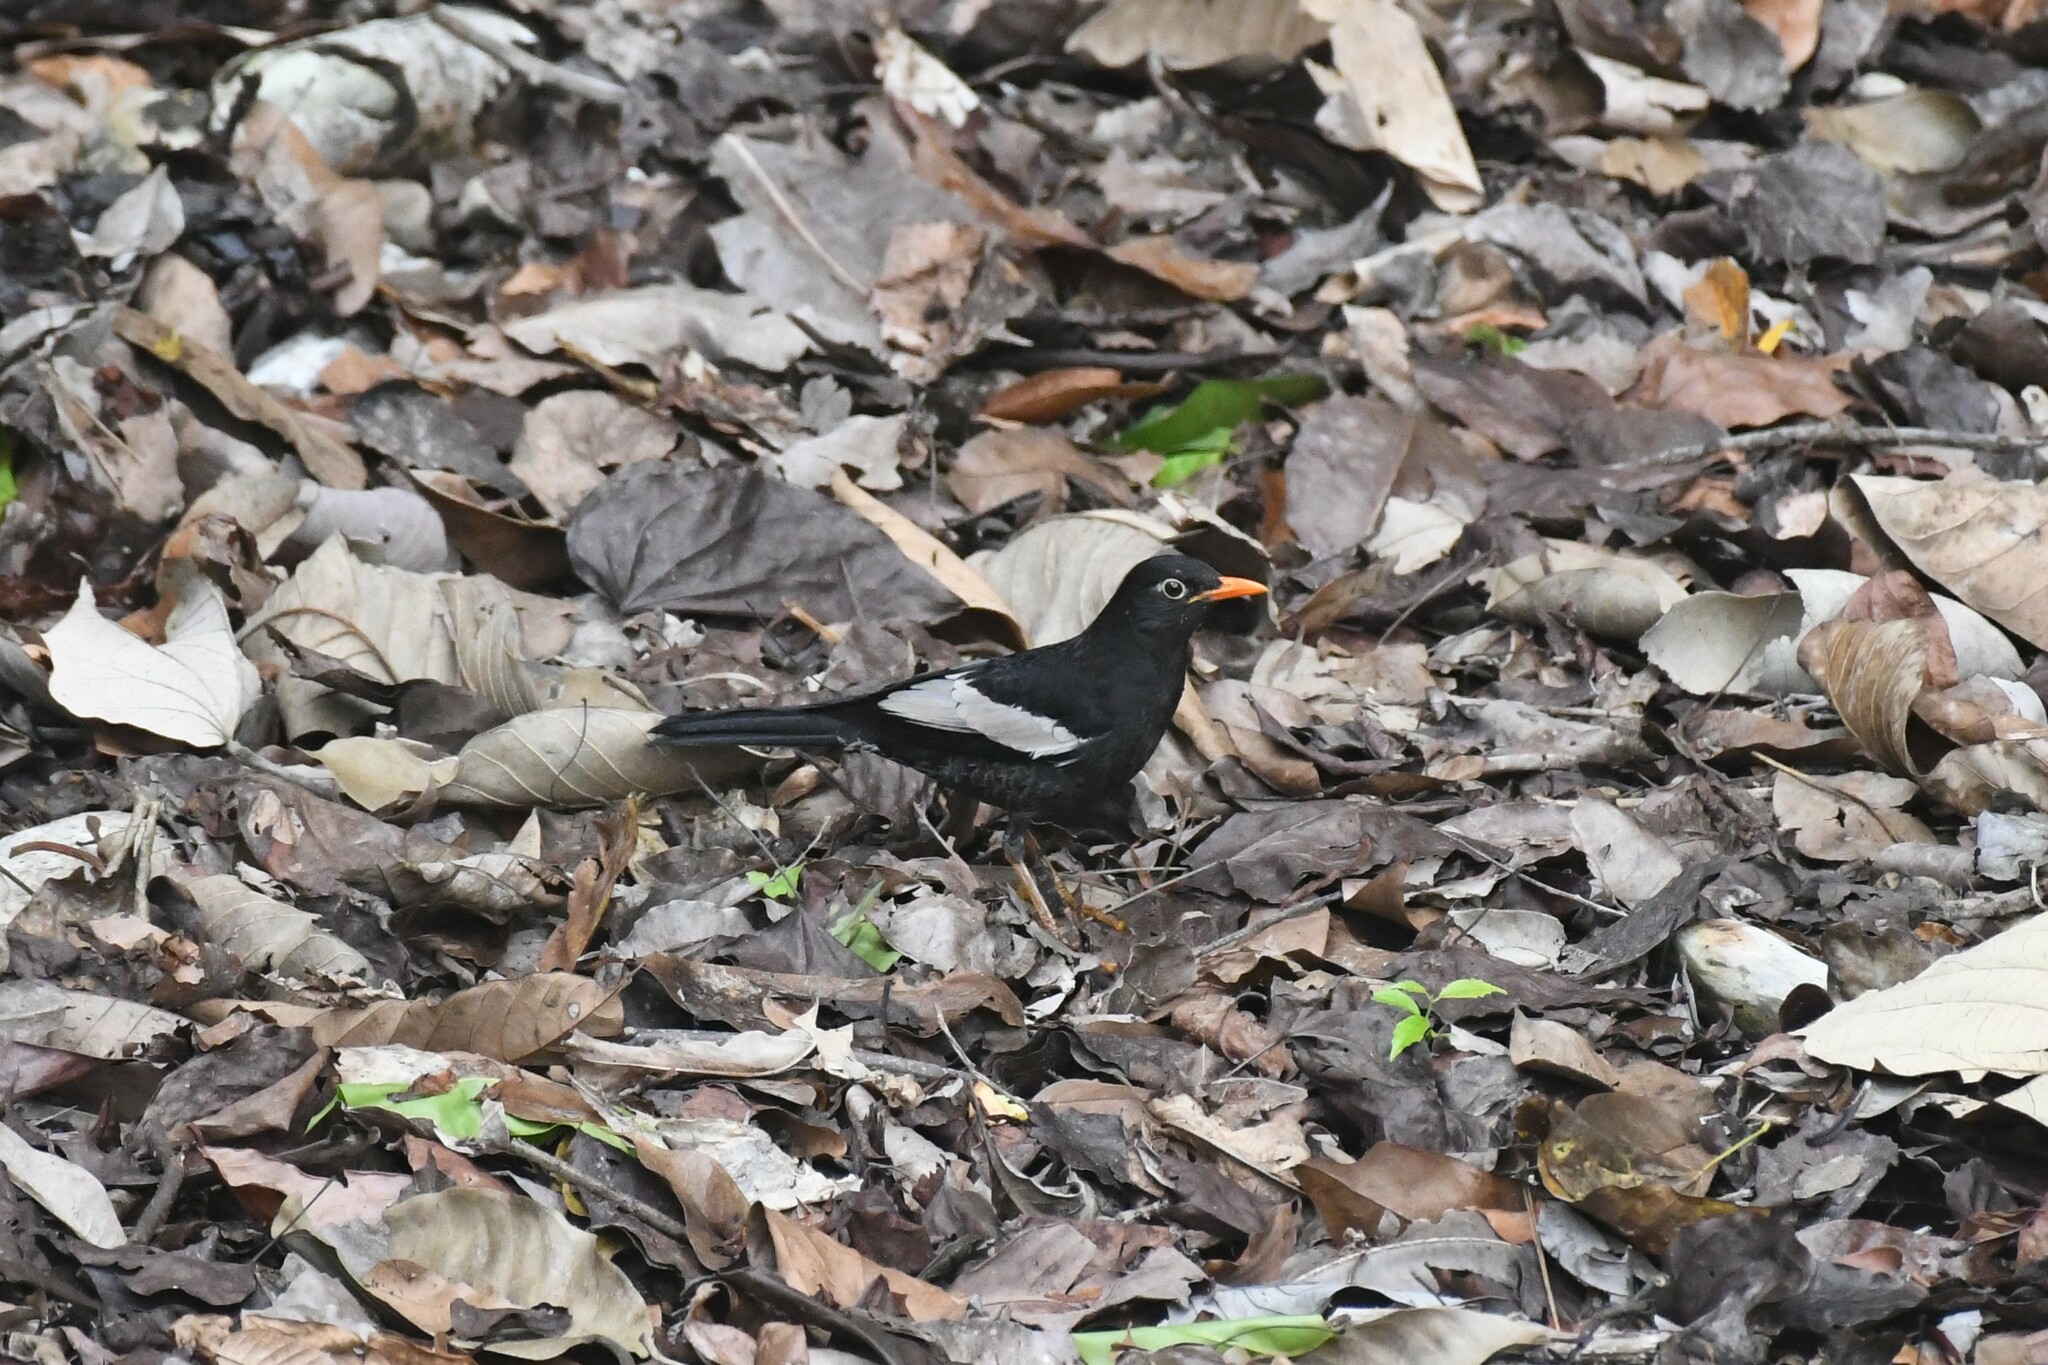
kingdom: Animalia
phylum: Chordata
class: Aves
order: Passeriformes
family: Turdidae
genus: Turdus
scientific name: Turdus boulboul
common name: Grey-winged blackbird
